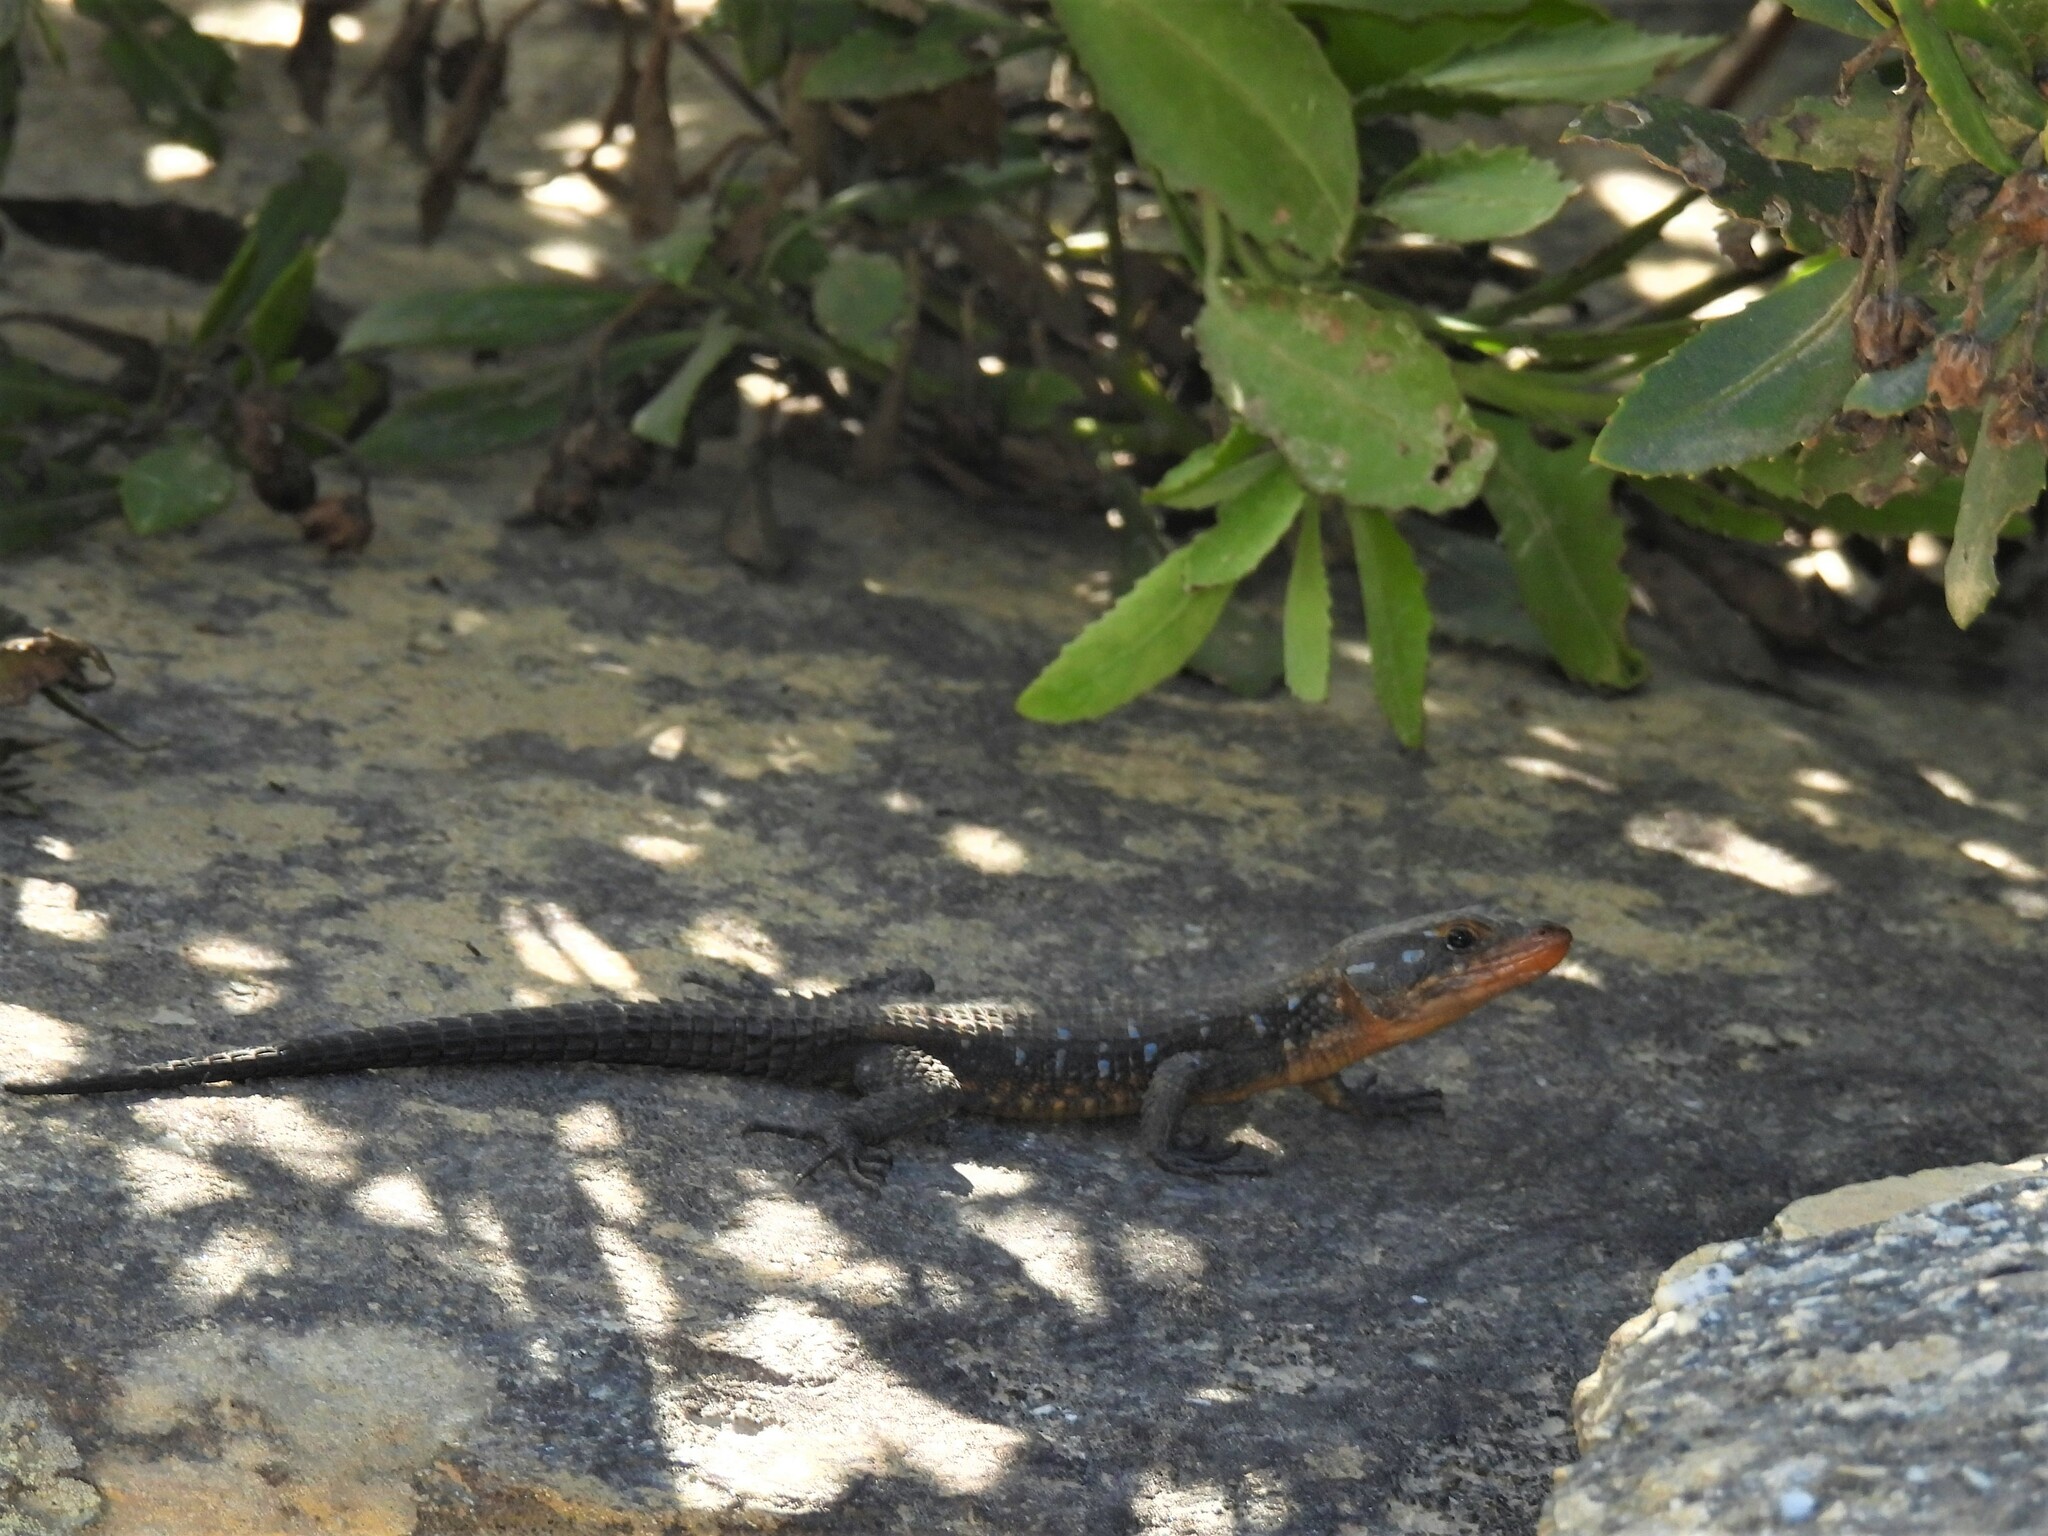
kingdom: Animalia
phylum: Chordata
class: Squamata
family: Cordylidae
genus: Ninurta
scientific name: Ninurta coeruleopunctatus
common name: Blue-spotted girdled lizard
